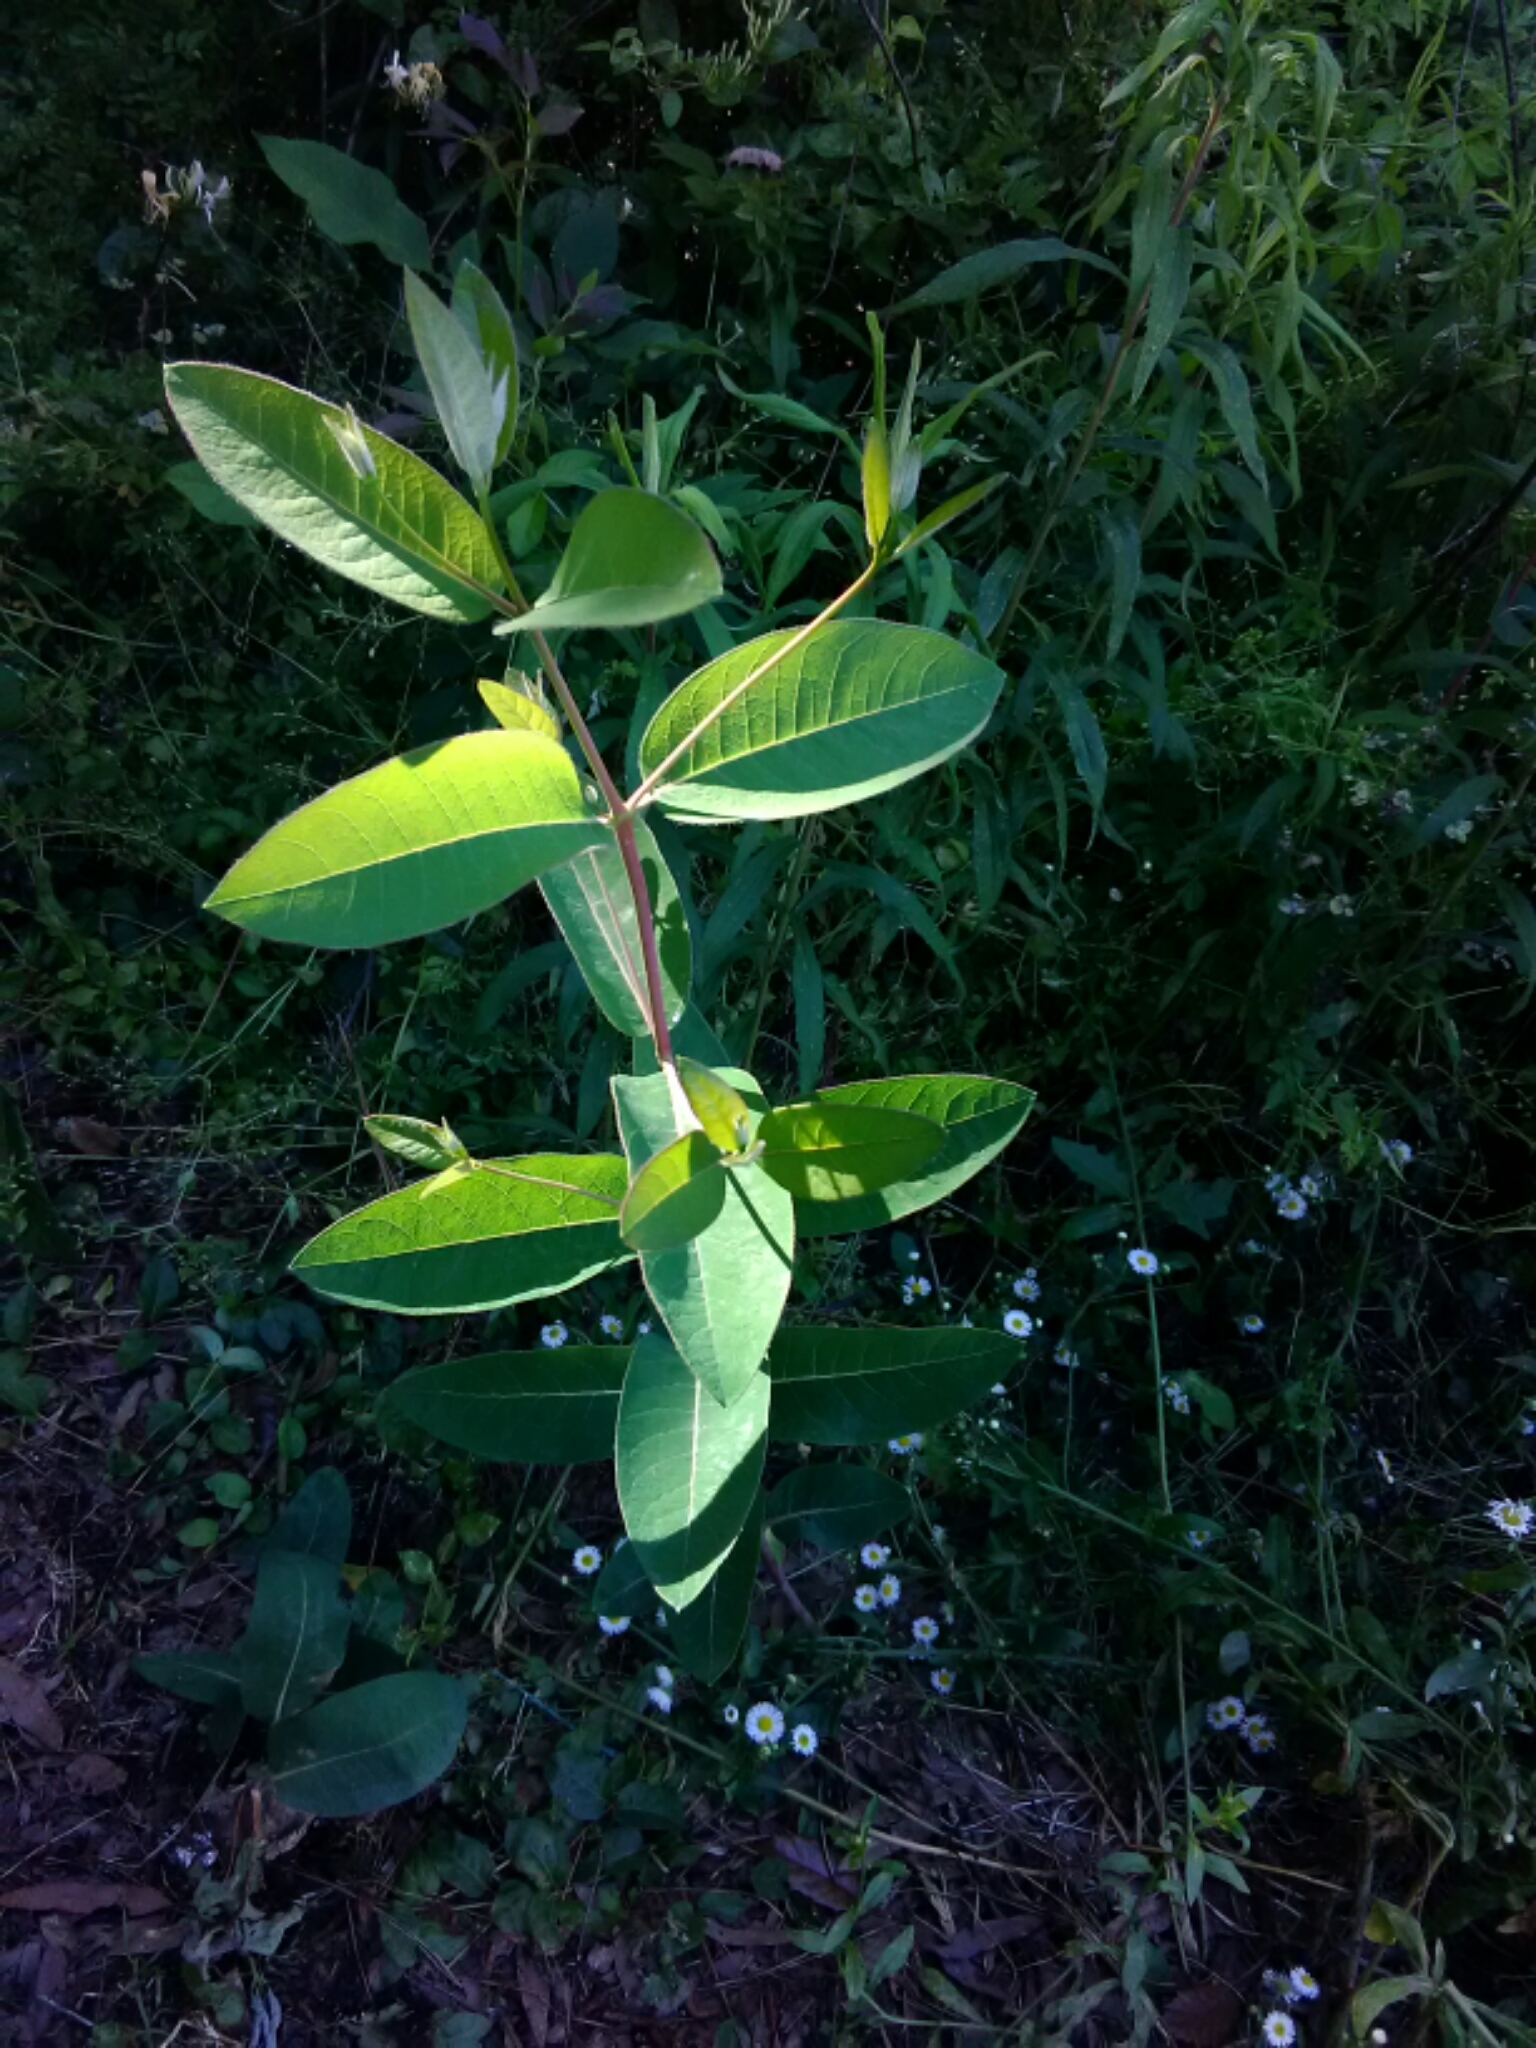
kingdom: Plantae
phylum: Tracheophyta
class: Magnoliopsida
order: Gentianales
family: Apocynaceae
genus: Apocynum
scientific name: Apocynum cannabinum
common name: Hemp dogbane
